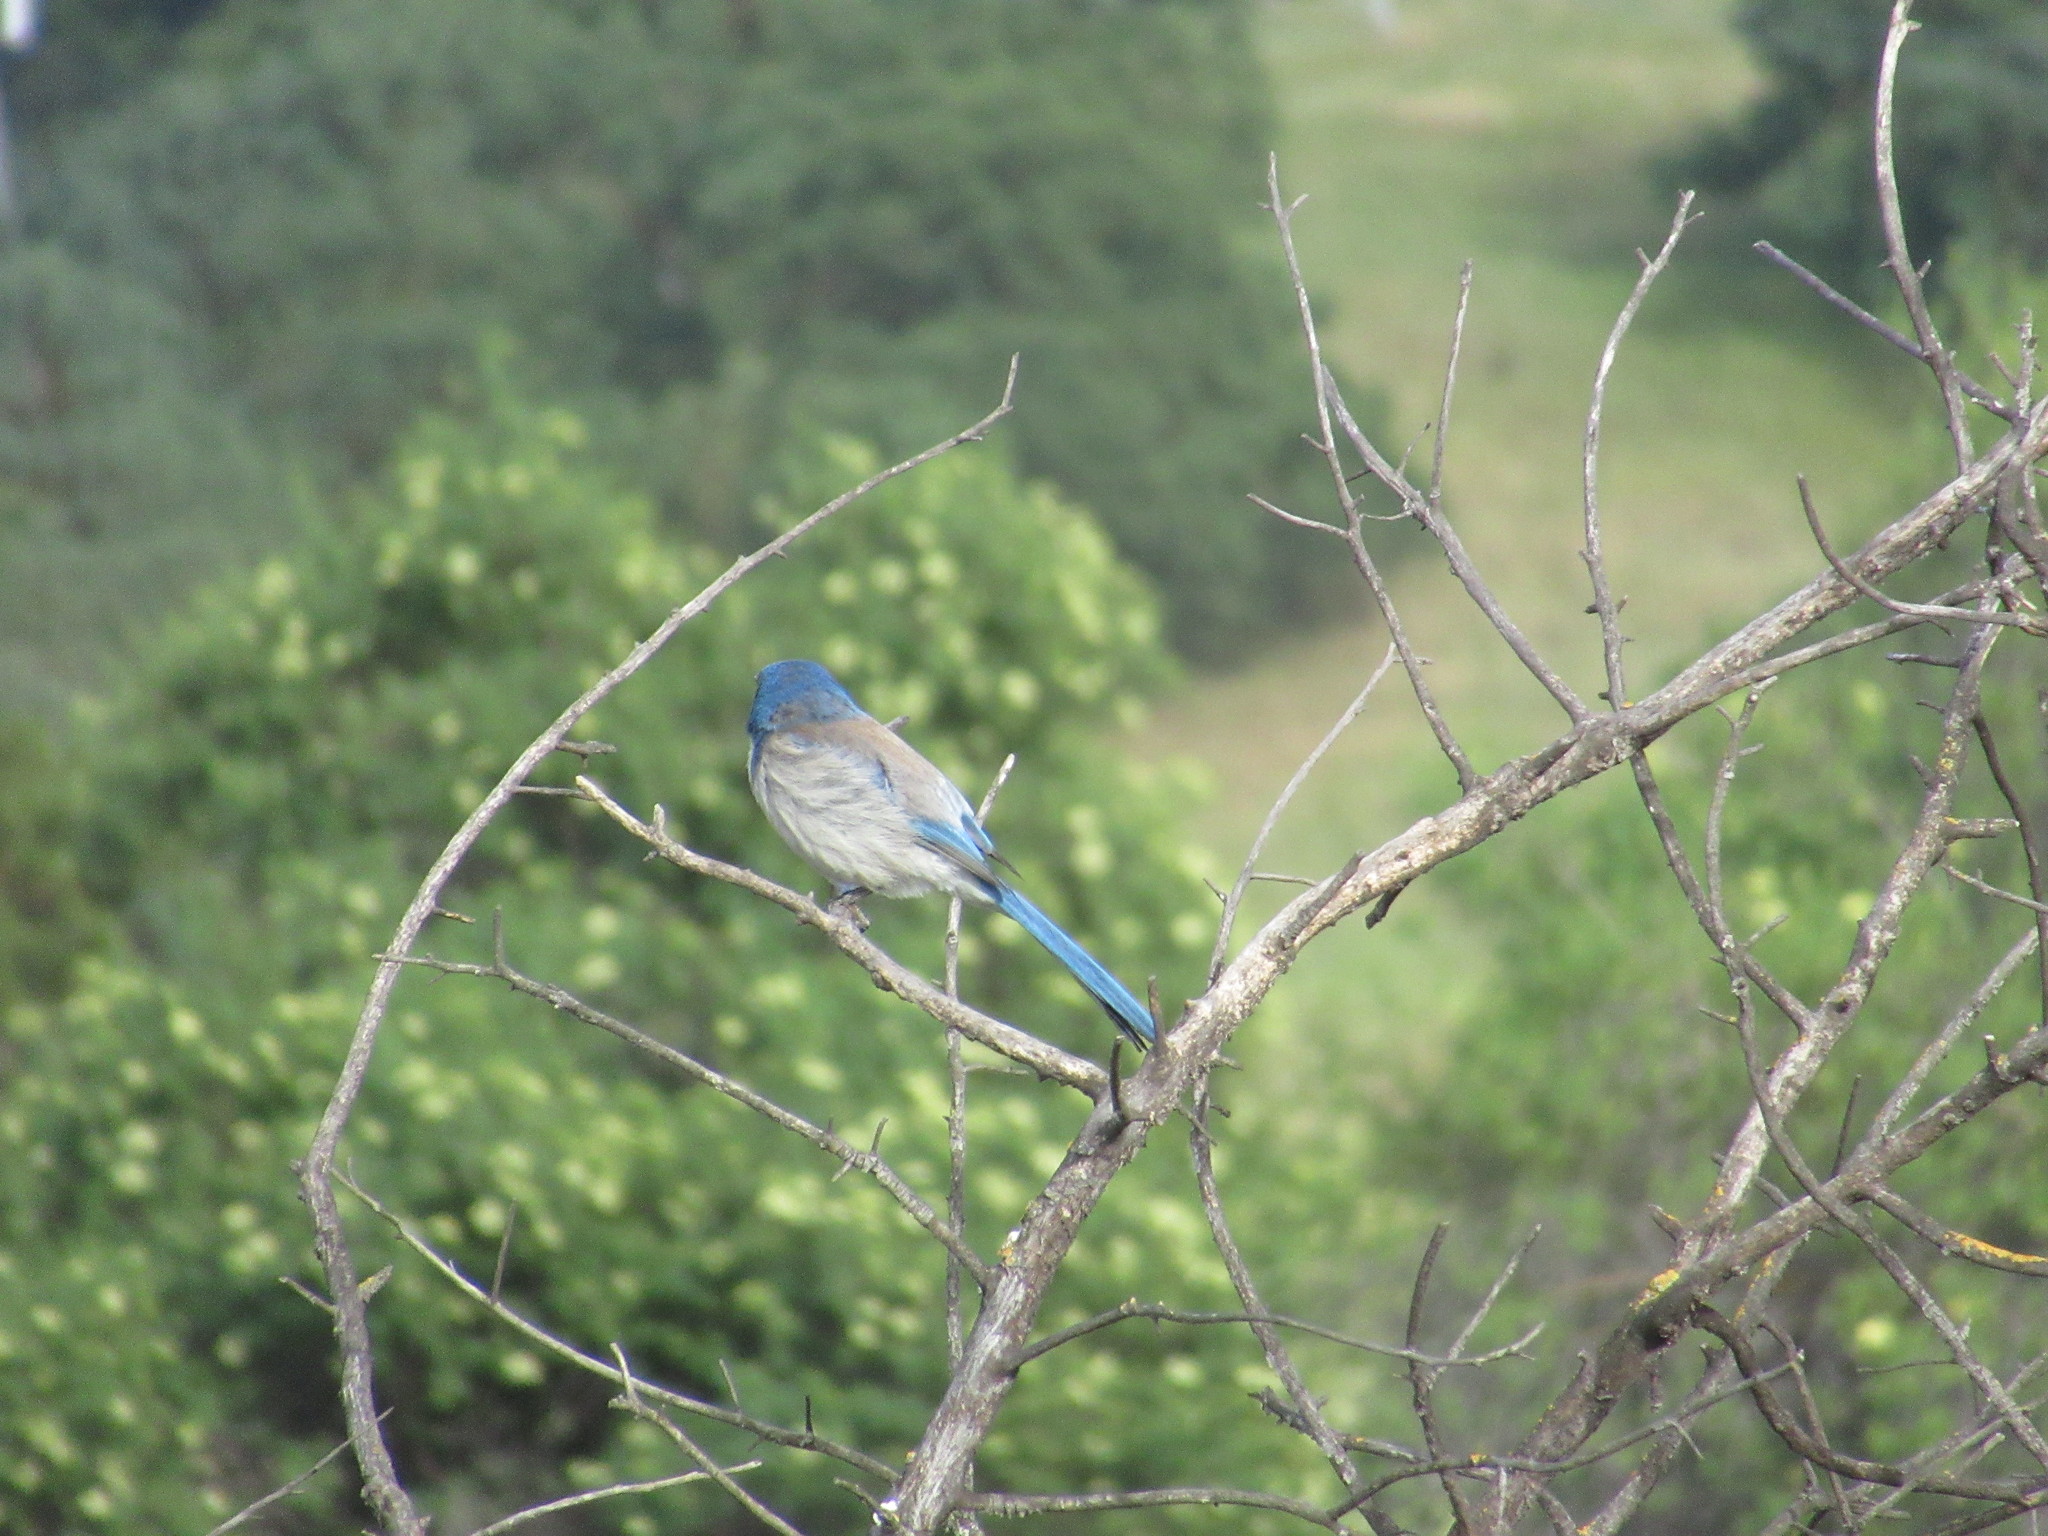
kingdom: Animalia
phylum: Chordata
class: Aves
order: Passeriformes
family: Corvidae
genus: Aphelocoma
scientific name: Aphelocoma californica
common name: California scrub-jay
